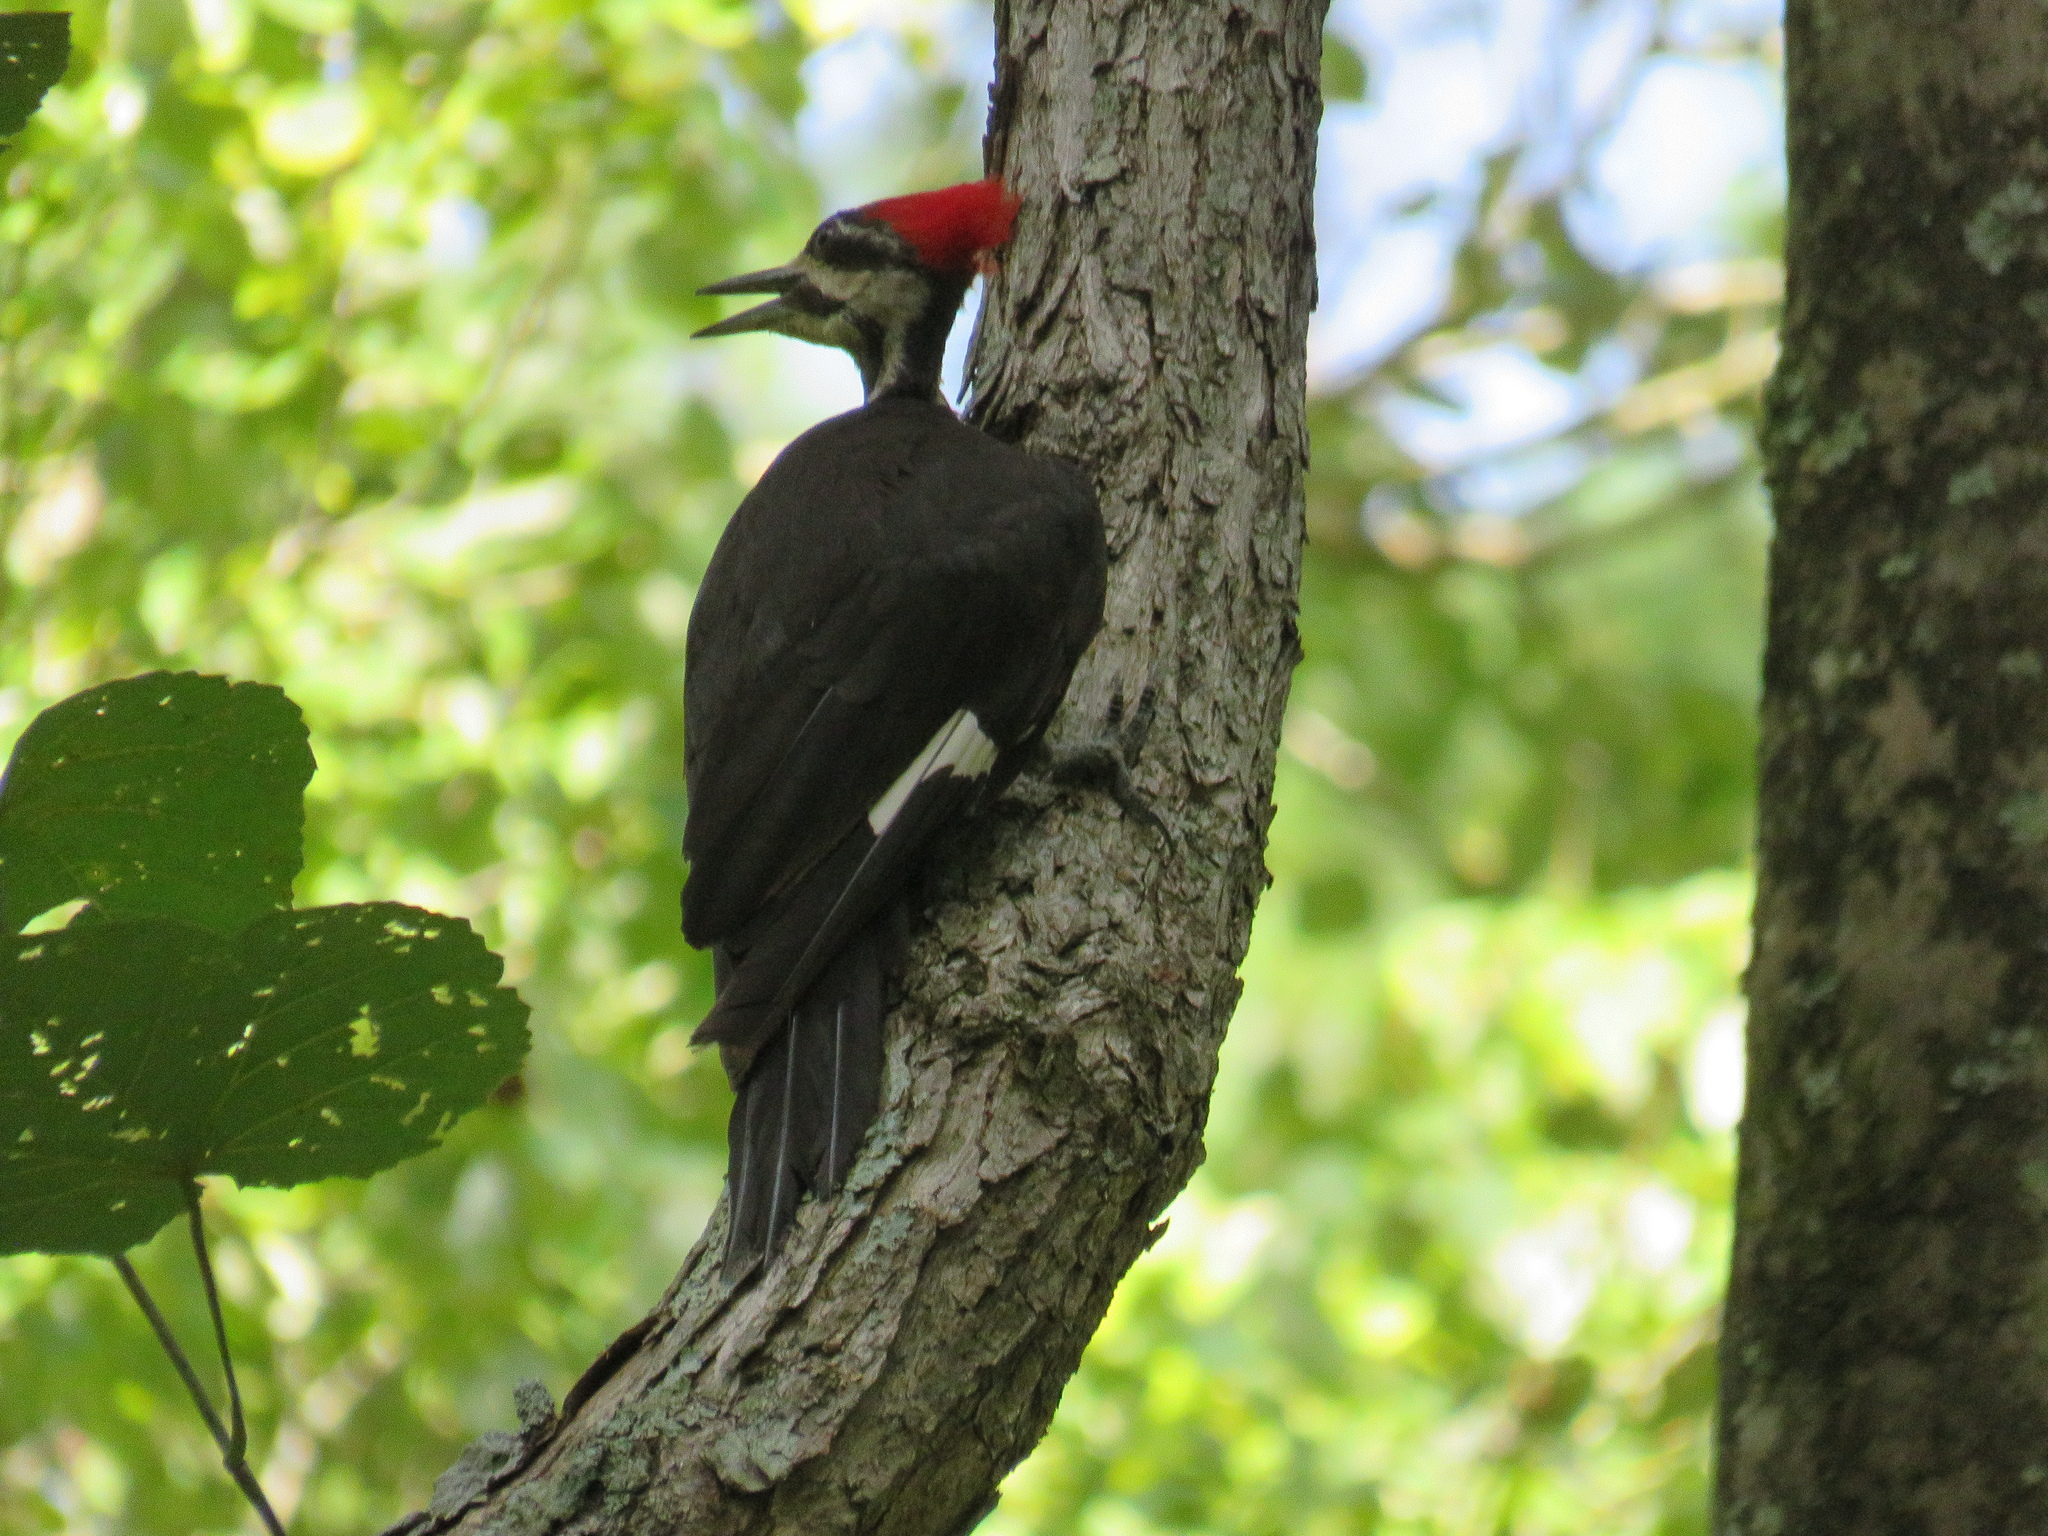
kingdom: Animalia
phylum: Chordata
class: Aves
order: Piciformes
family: Picidae
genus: Dryocopus
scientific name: Dryocopus pileatus
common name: Pileated woodpecker
